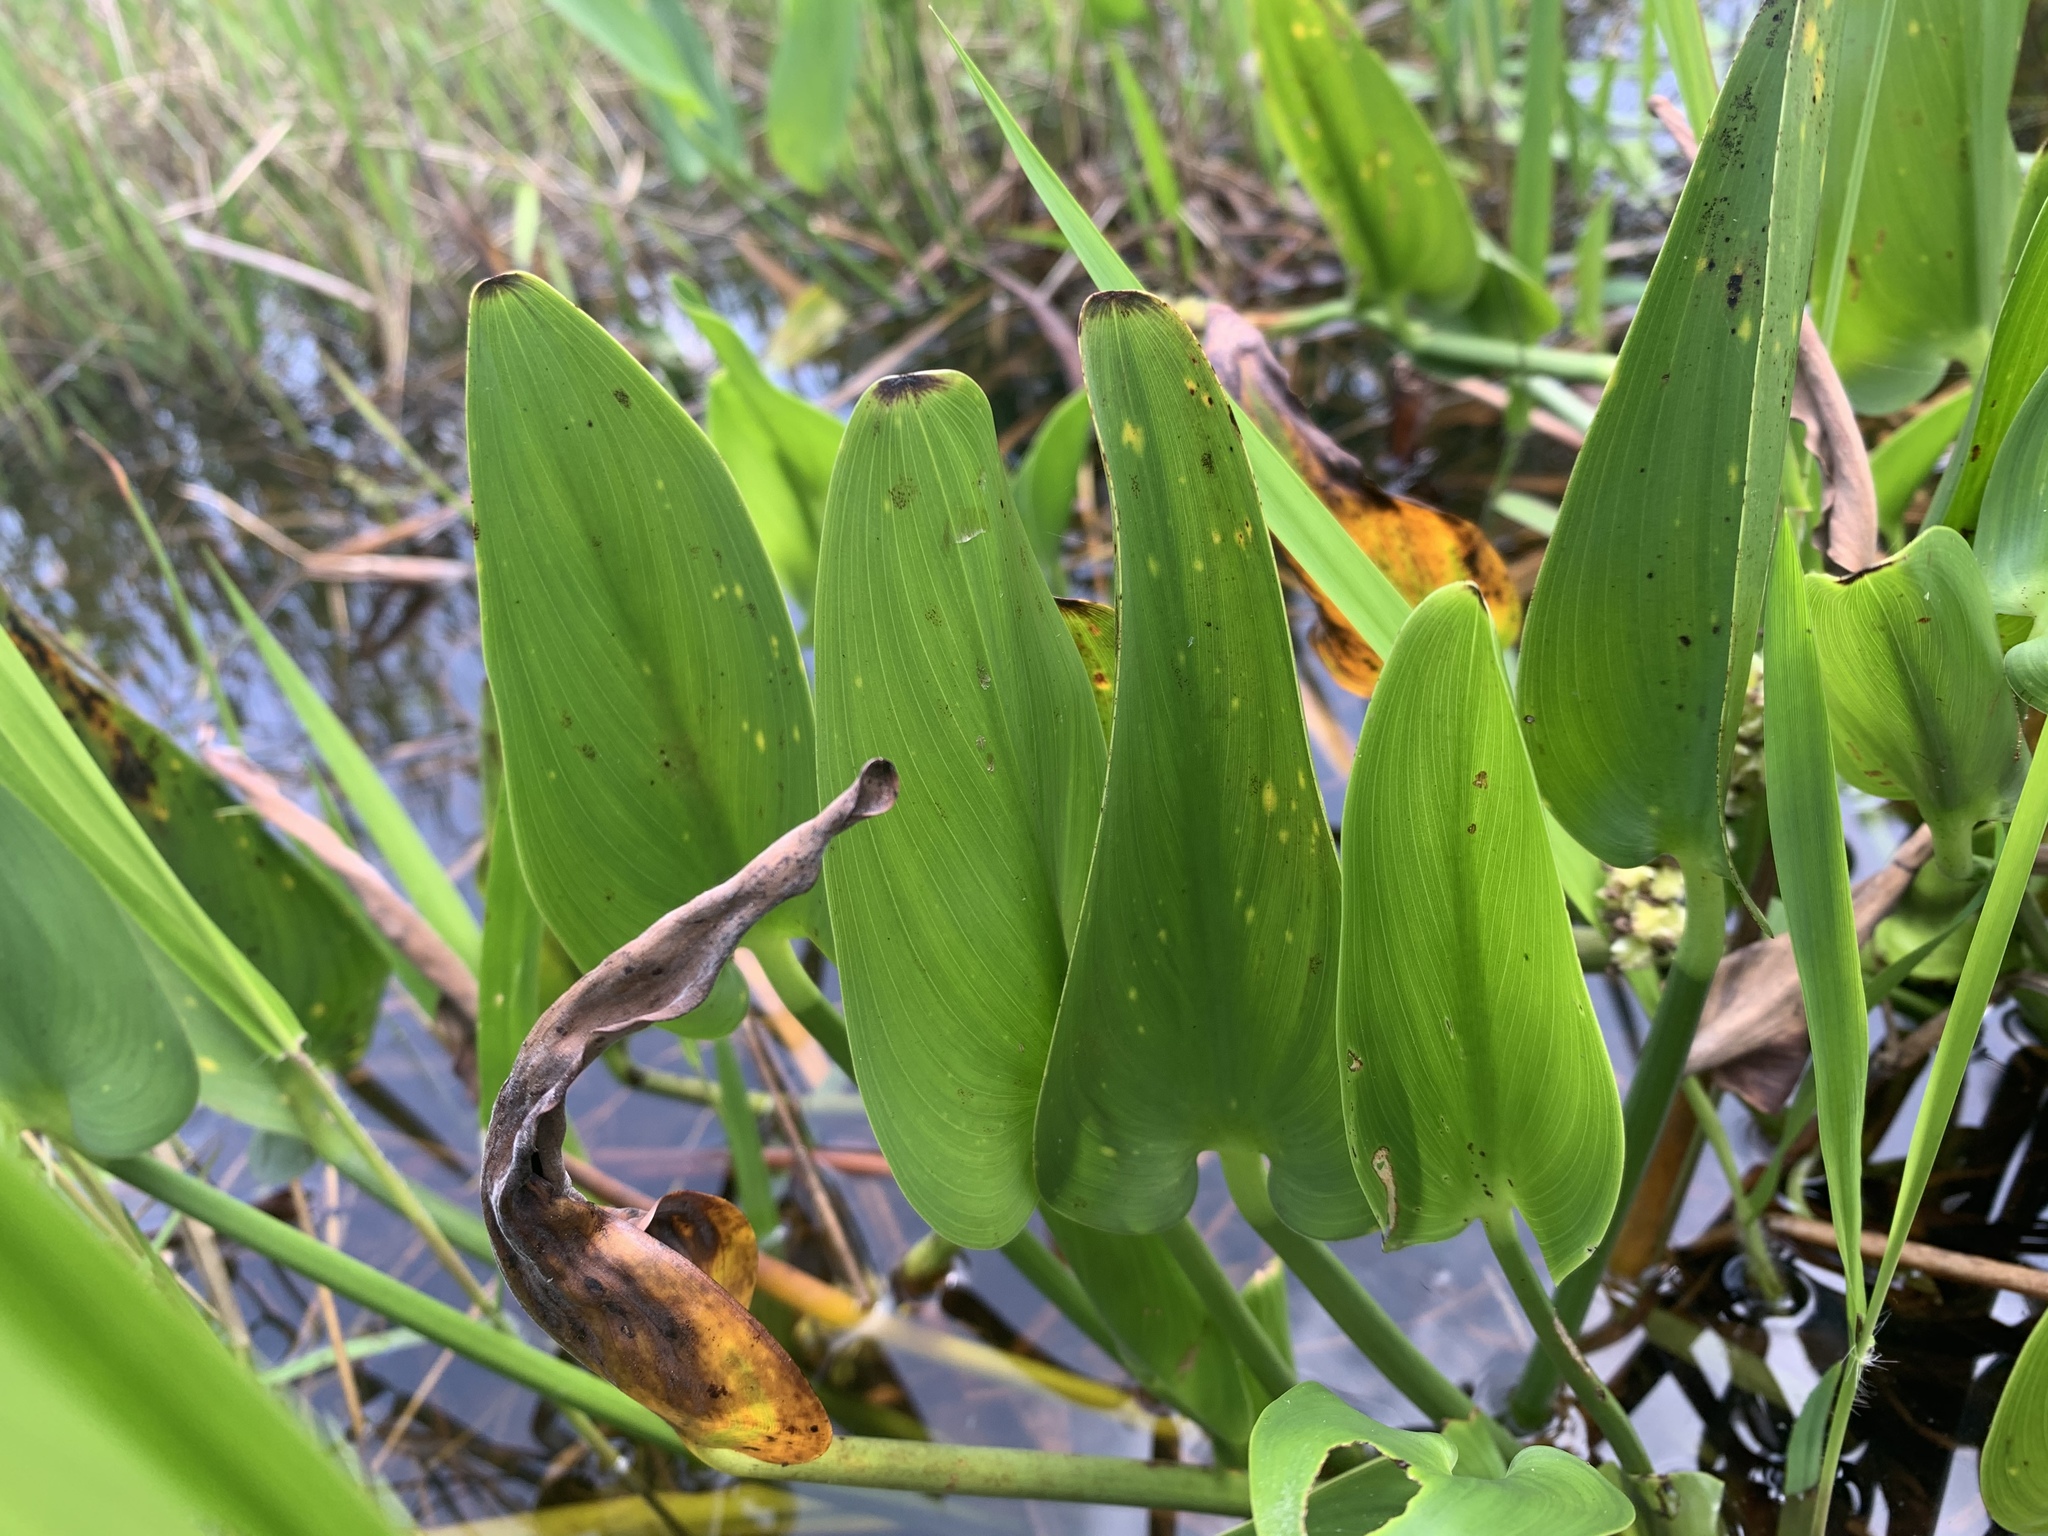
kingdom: Plantae
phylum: Tracheophyta
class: Liliopsida
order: Commelinales
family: Pontederiaceae
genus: Pontederia
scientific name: Pontederia cordata
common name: Pickerelweed
